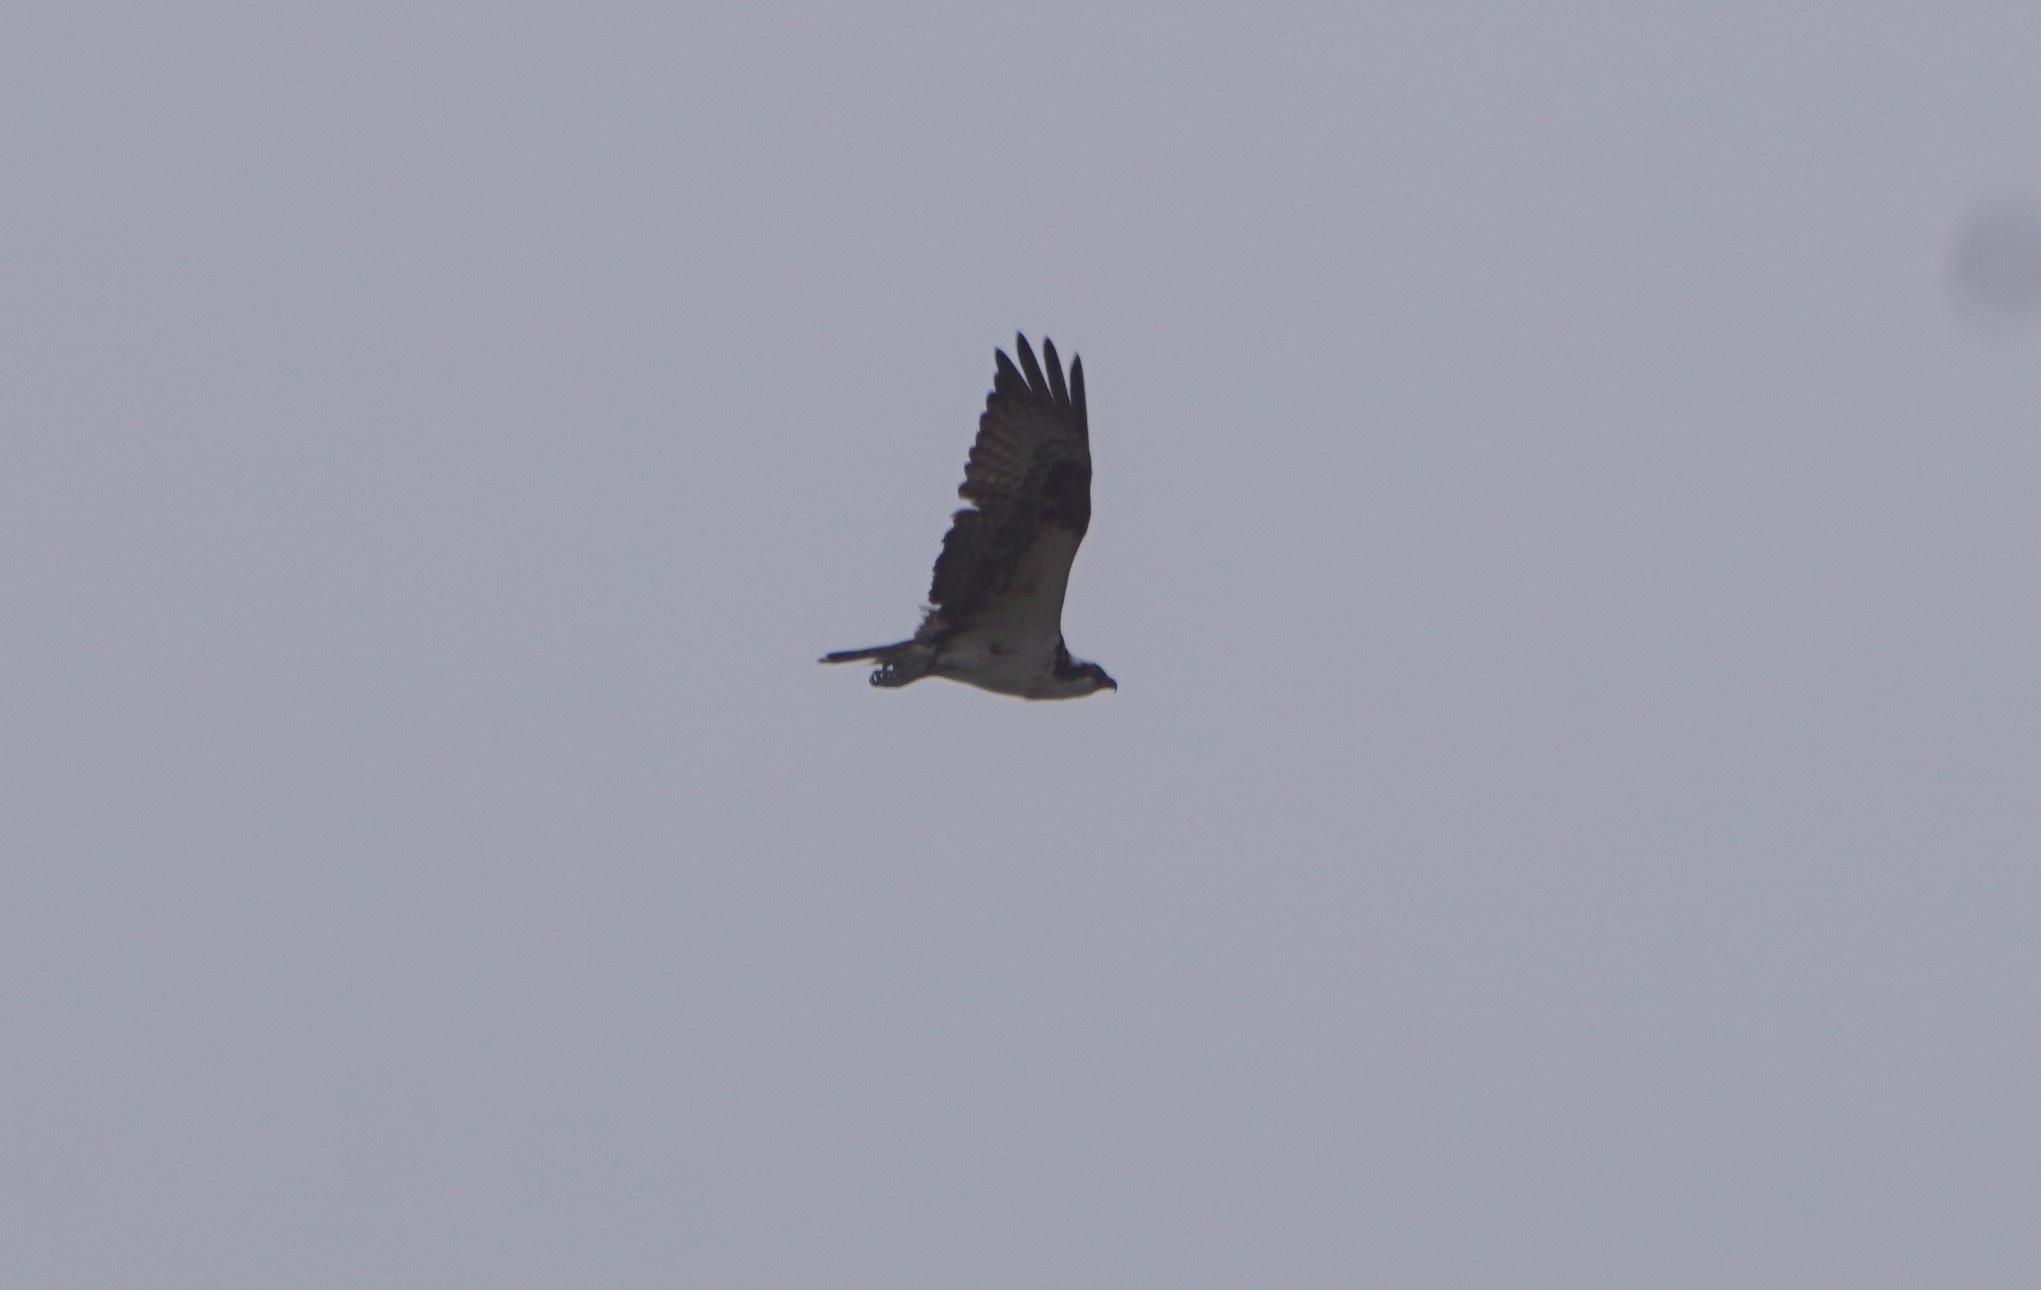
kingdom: Animalia
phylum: Chordata
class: Aves
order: Accipitriformes
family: Pandionidae
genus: Pandion
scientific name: Pandion haliaetus
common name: Osprey
